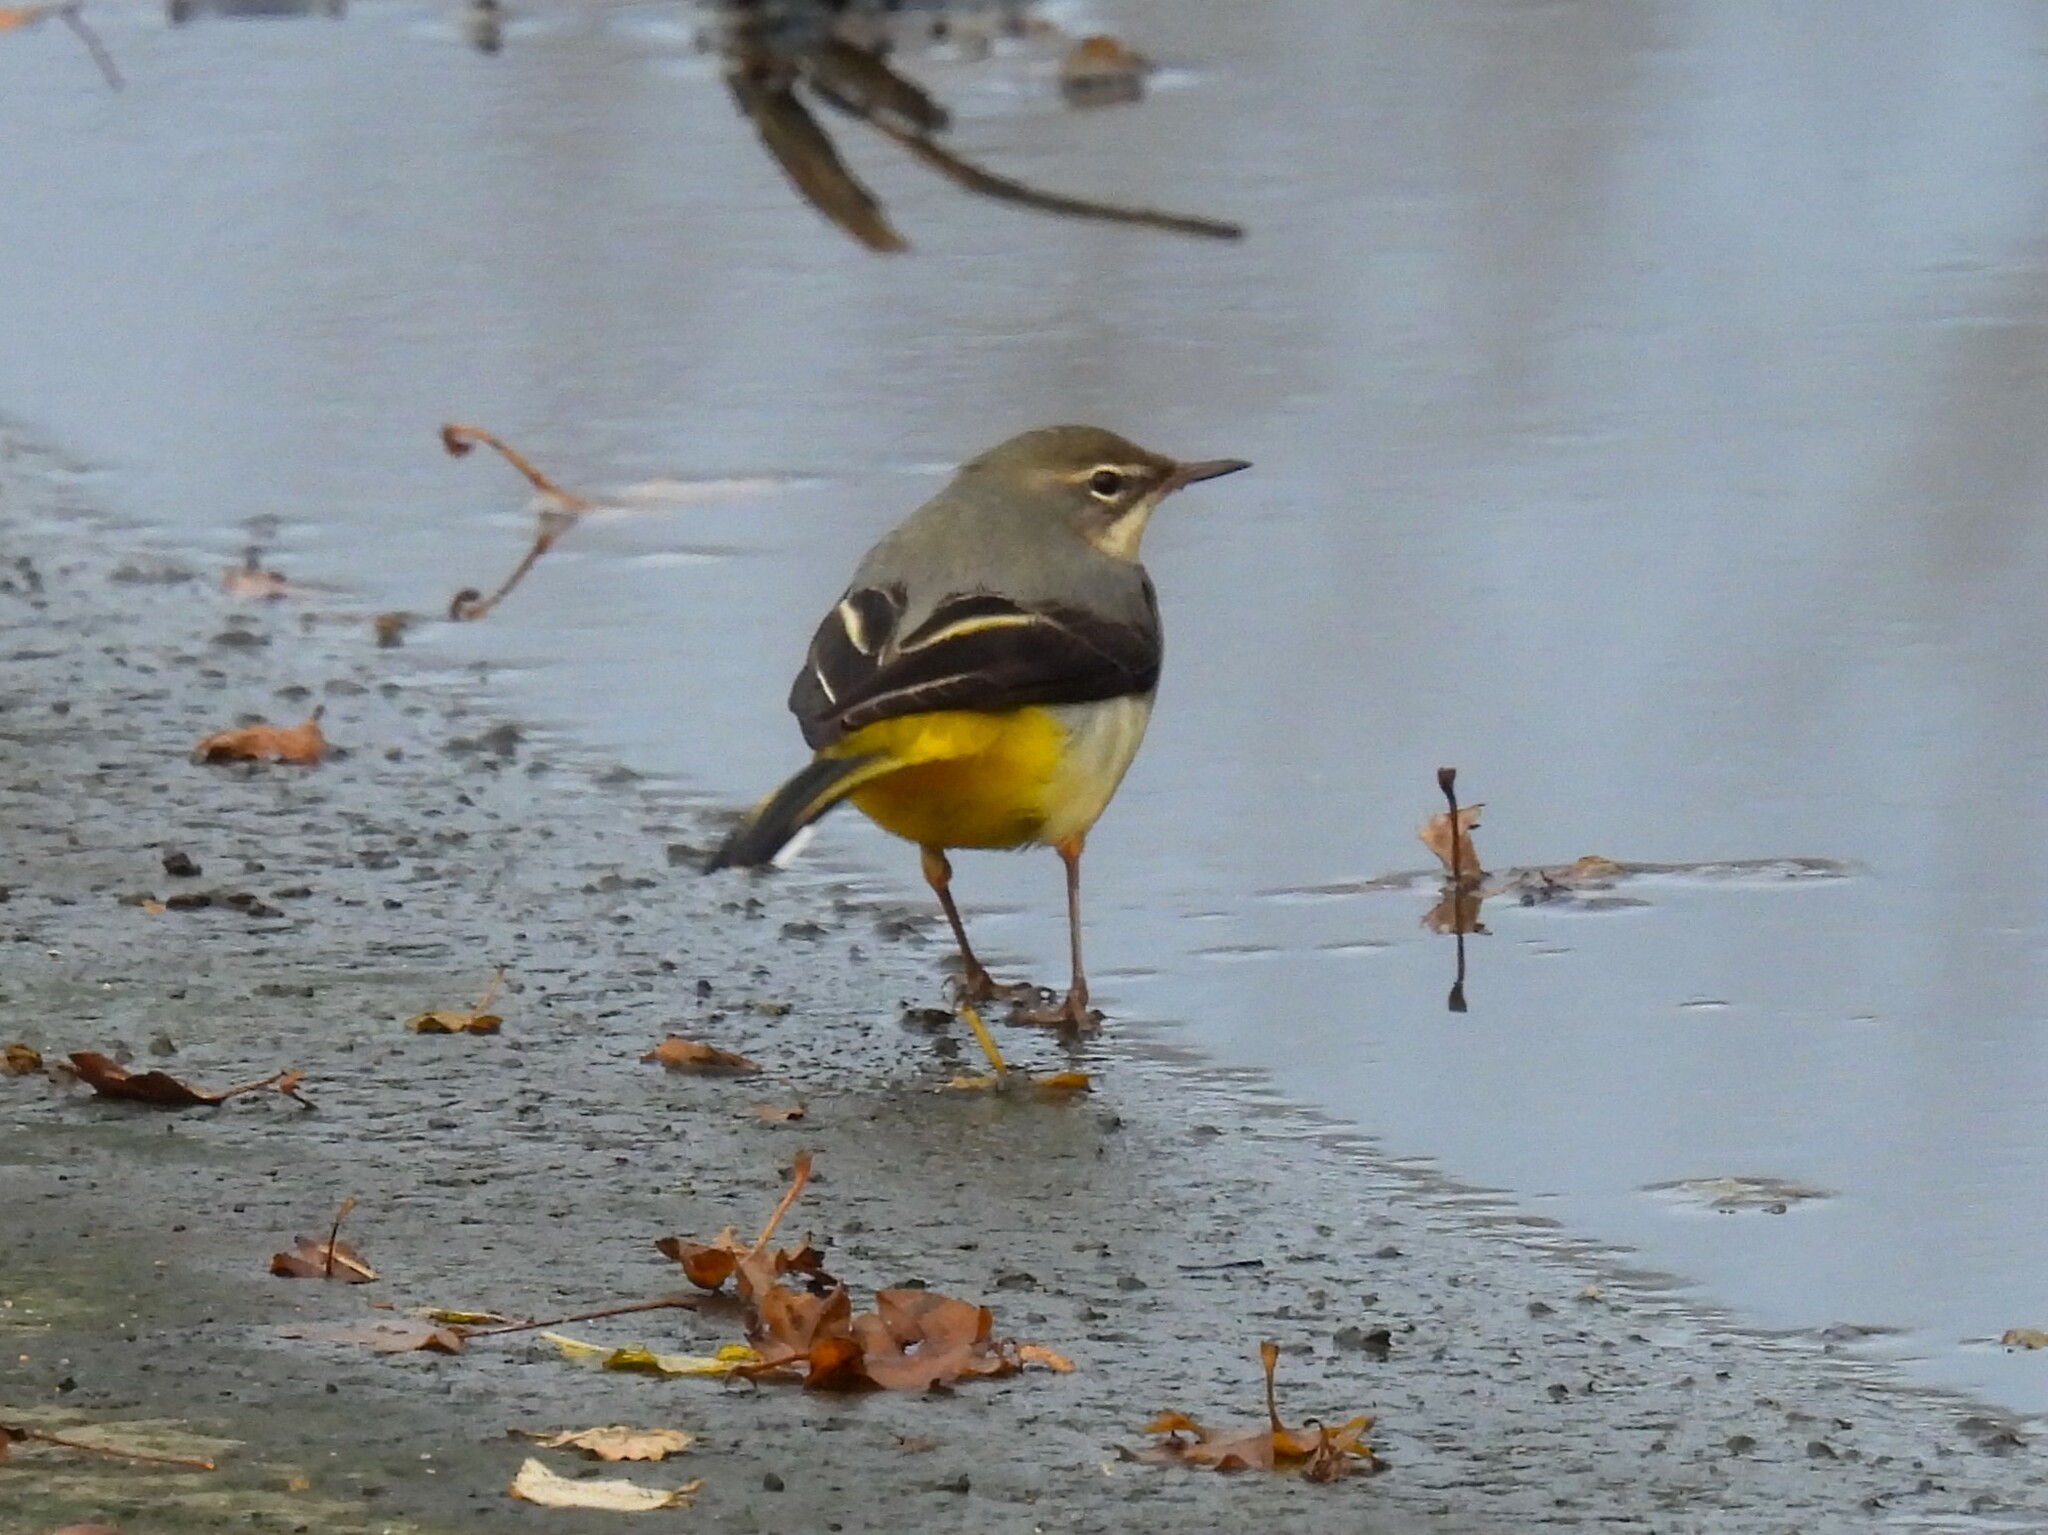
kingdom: Animalia
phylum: Chordata
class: Aves
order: Passeriformes
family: Motacillidae
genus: Motacilla
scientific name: Motacilla cinerea
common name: Grey wagtail
